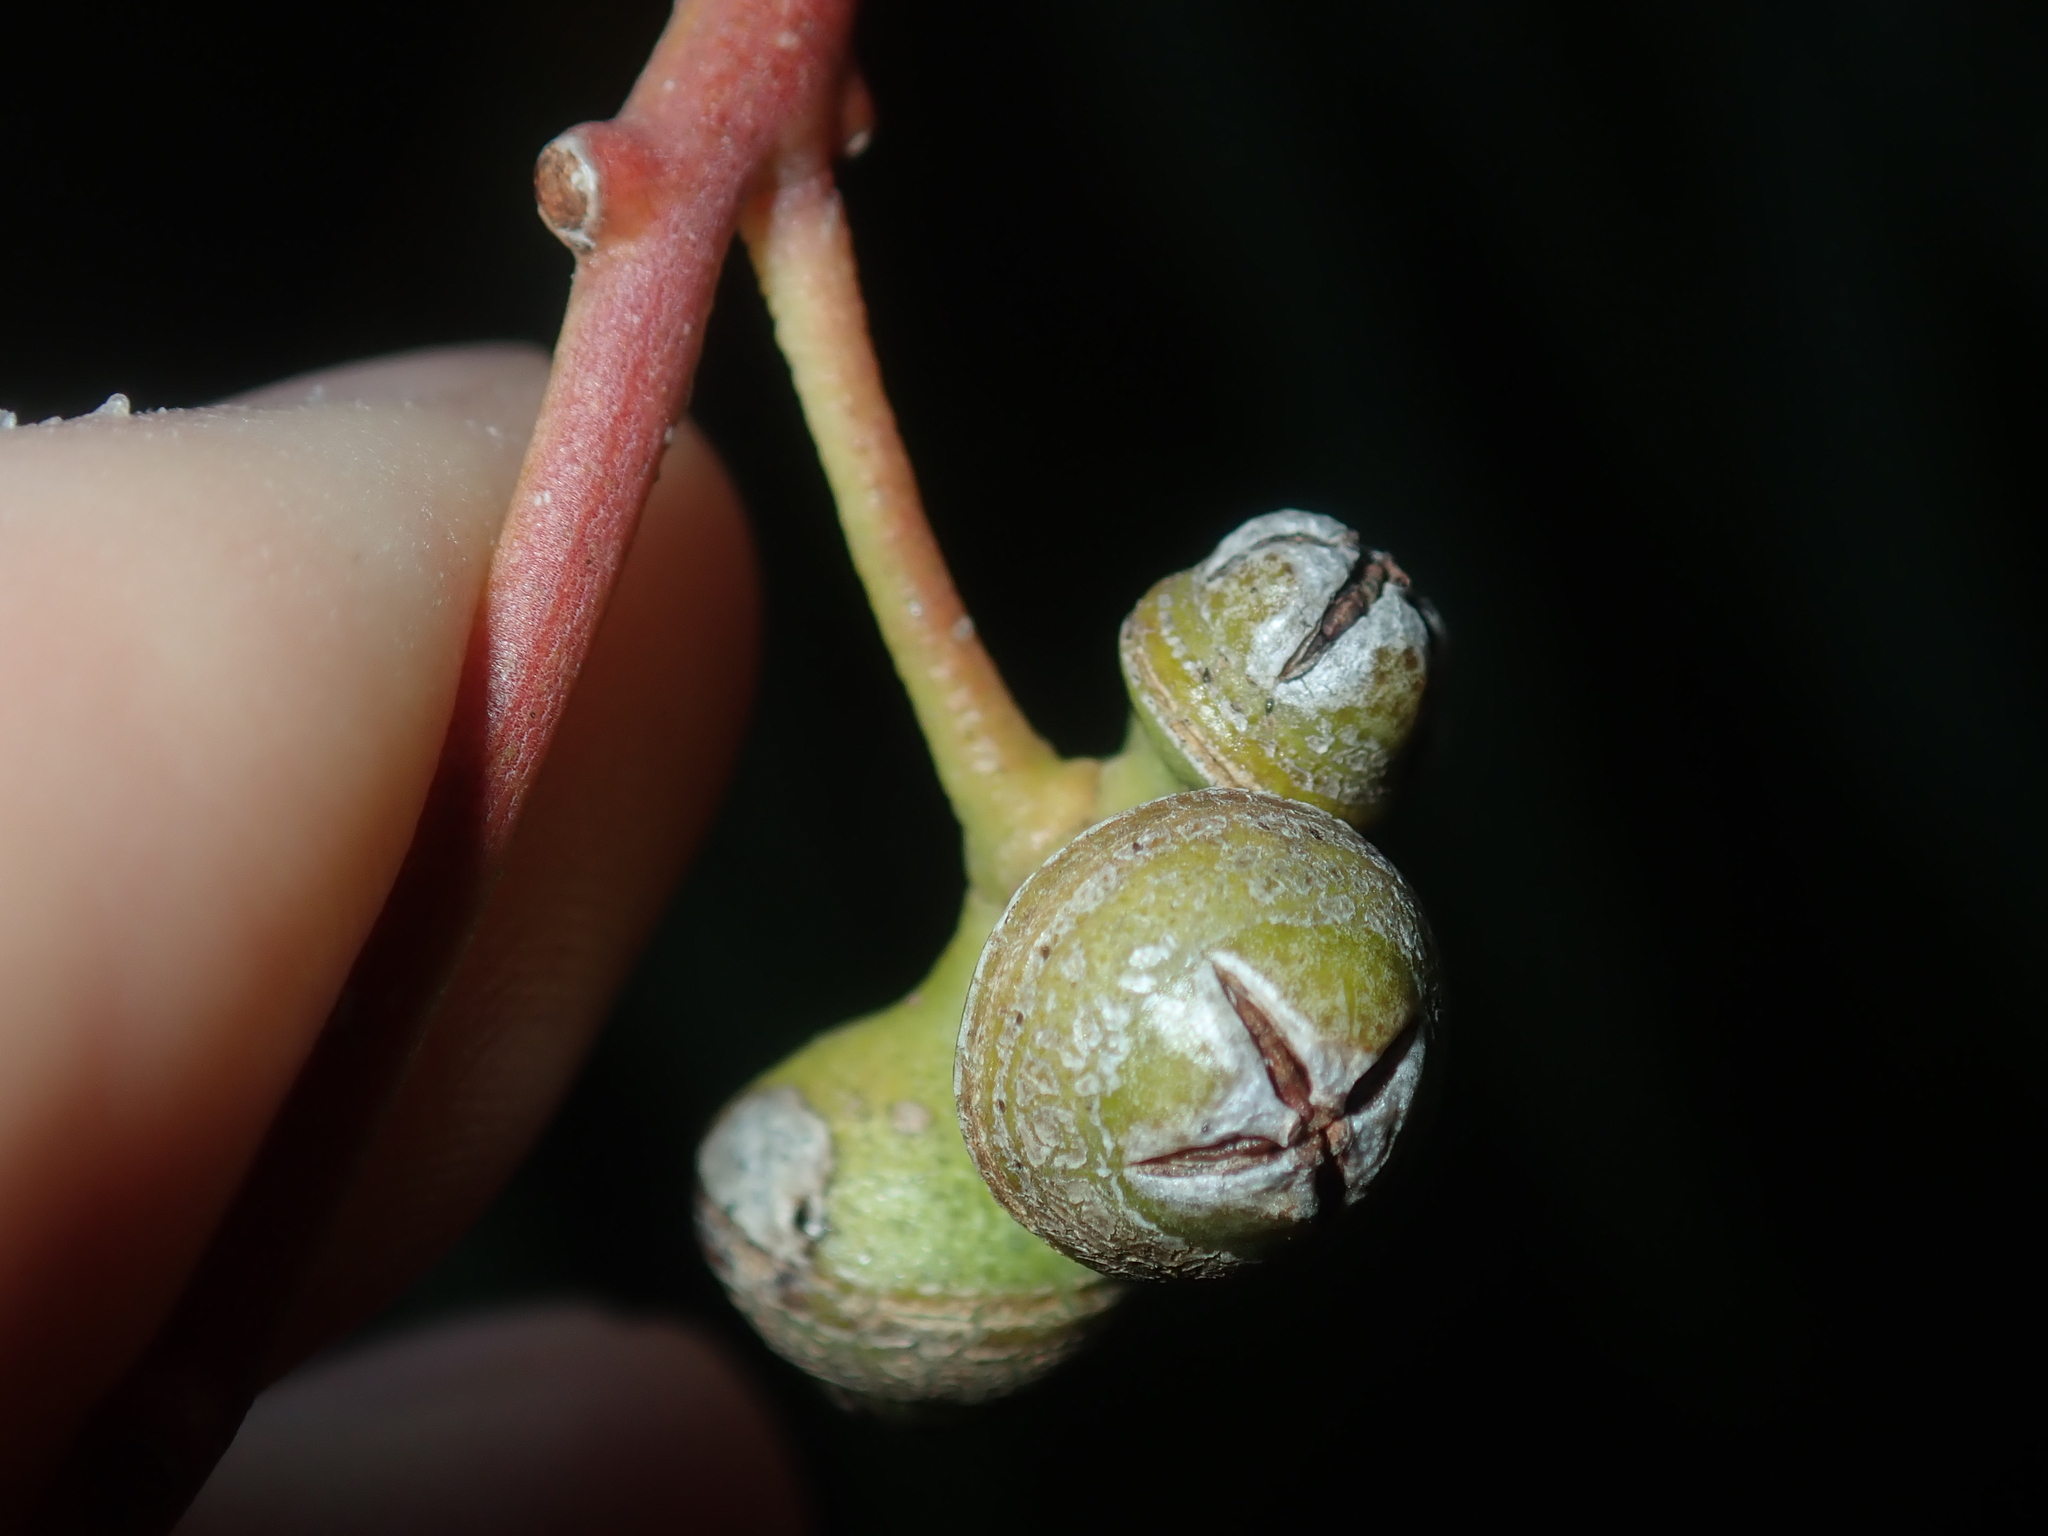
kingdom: Plantae
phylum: Tracheophyta
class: Magnoliopsida
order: Myrtales
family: Myrtaceae
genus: Eucalyptus
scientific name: Eucalyptus camaldulensis
